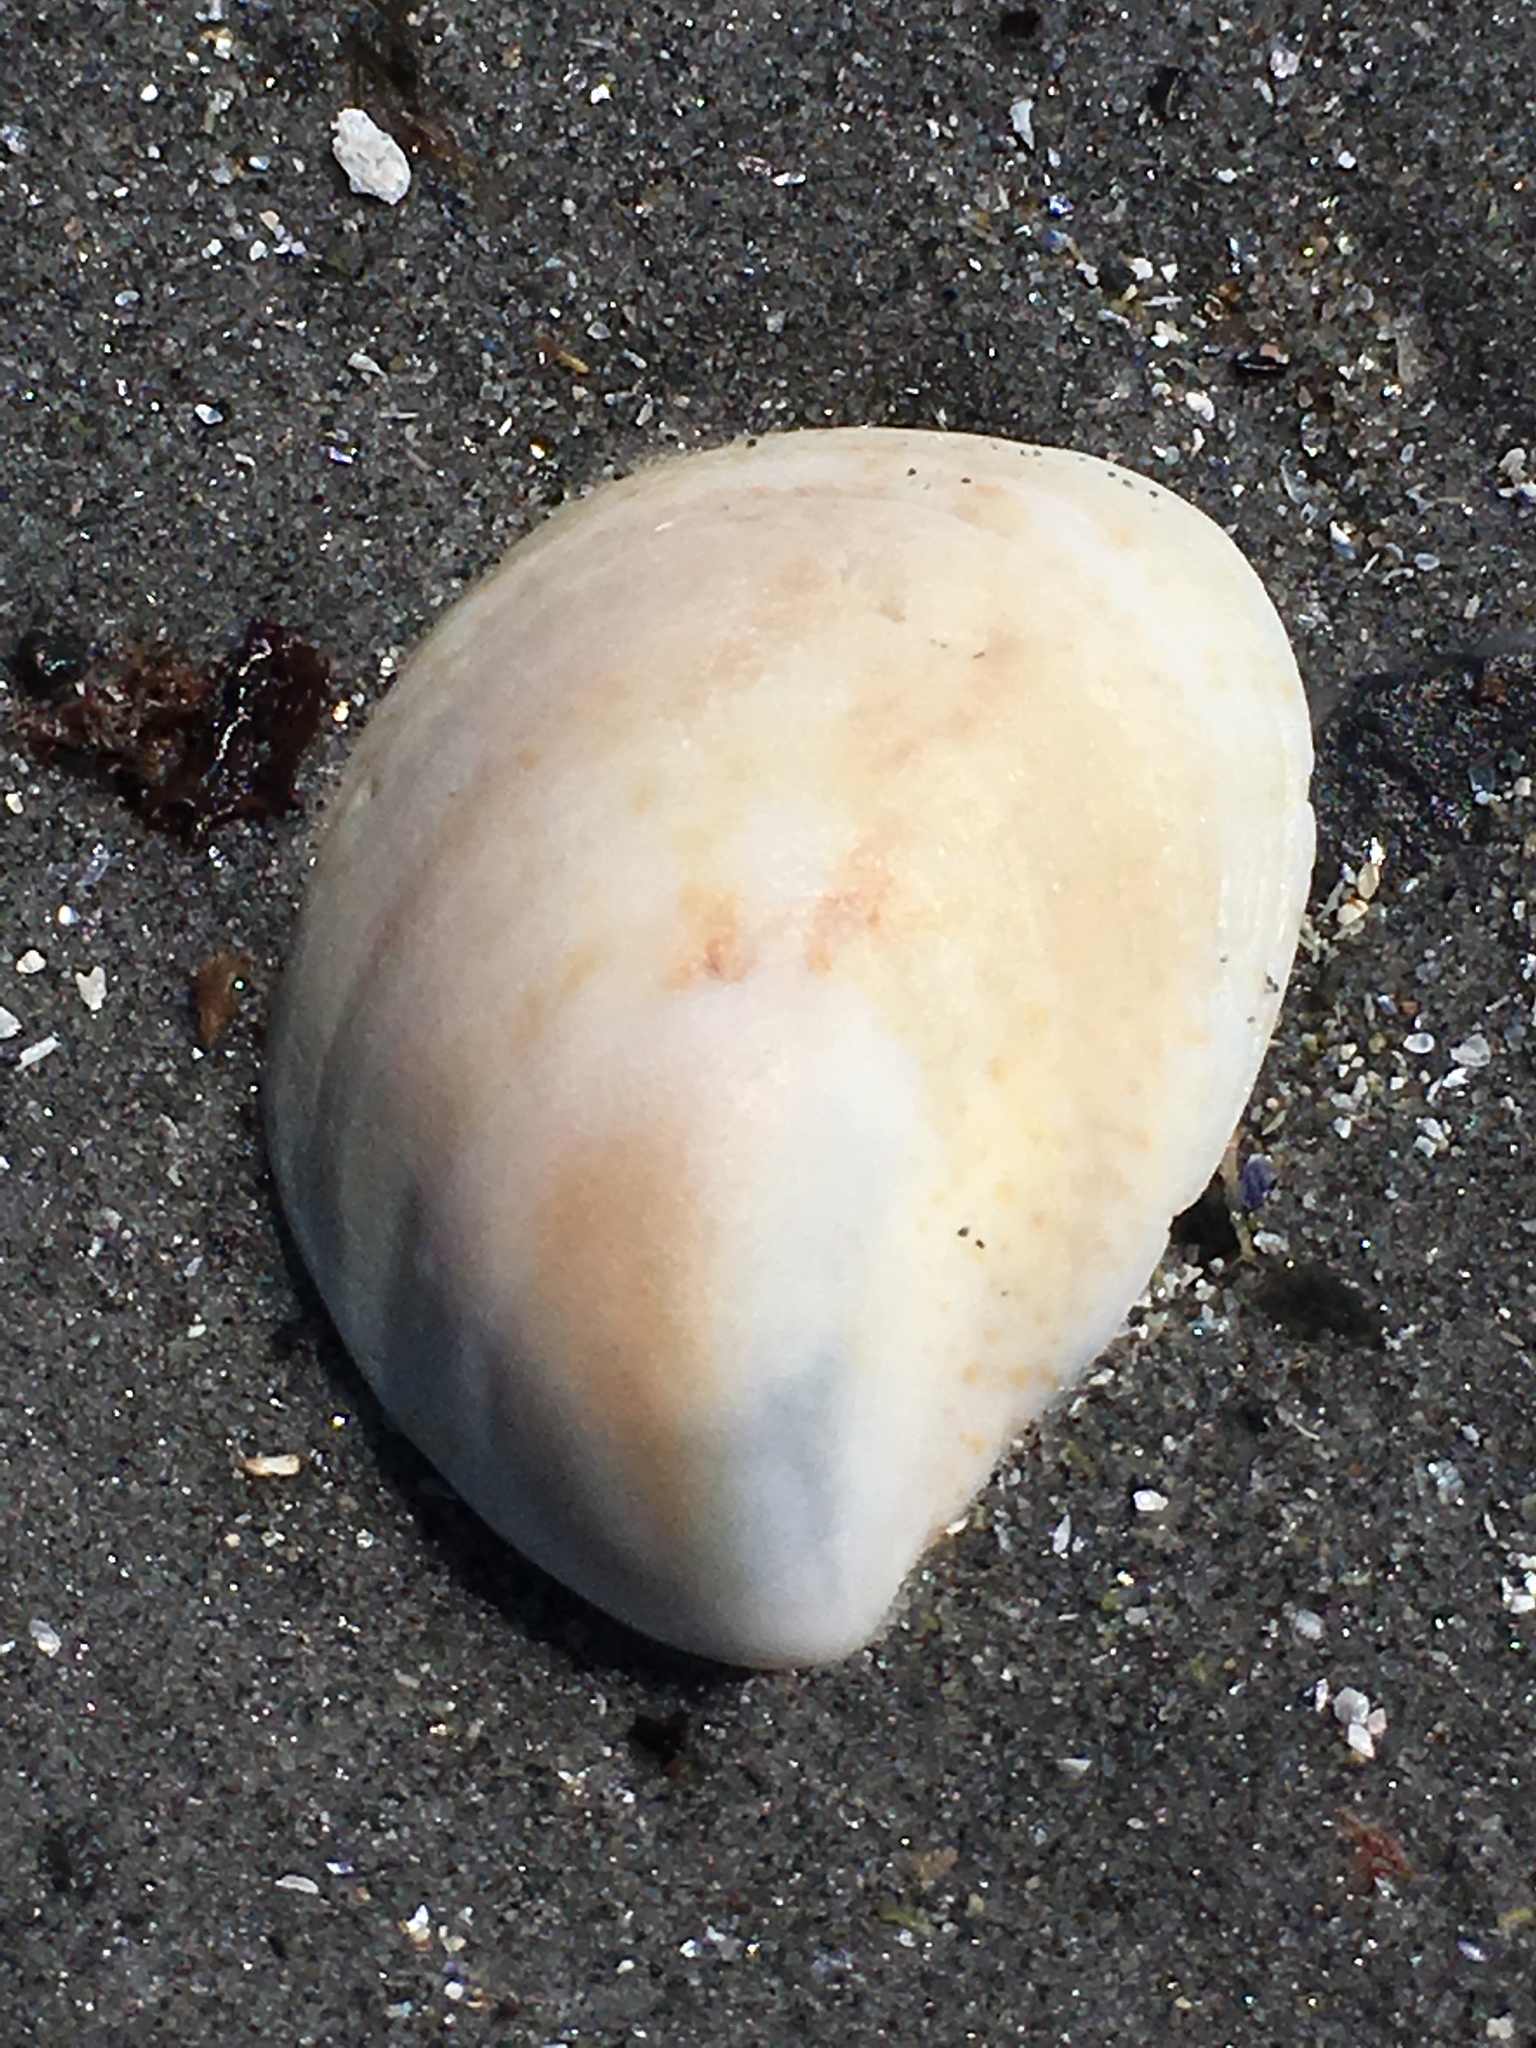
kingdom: Animalia
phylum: Mollusca
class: Gastropoda
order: Littorinimorpha
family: Calyptraeidae
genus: Crepidula
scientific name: Crepidula fornicata
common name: Slipper limpet
